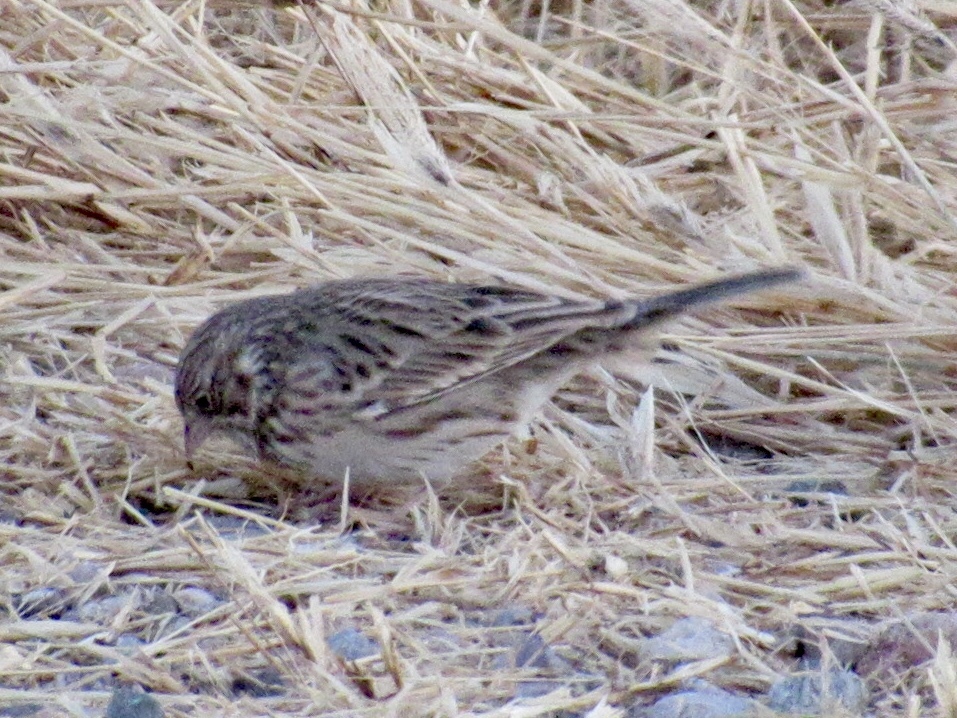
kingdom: Animalia
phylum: Chordata
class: Aves
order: Passeriformes
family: Passerellidae
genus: Pooecetes
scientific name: Pooecetes gramineus
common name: Vesper sparrow
